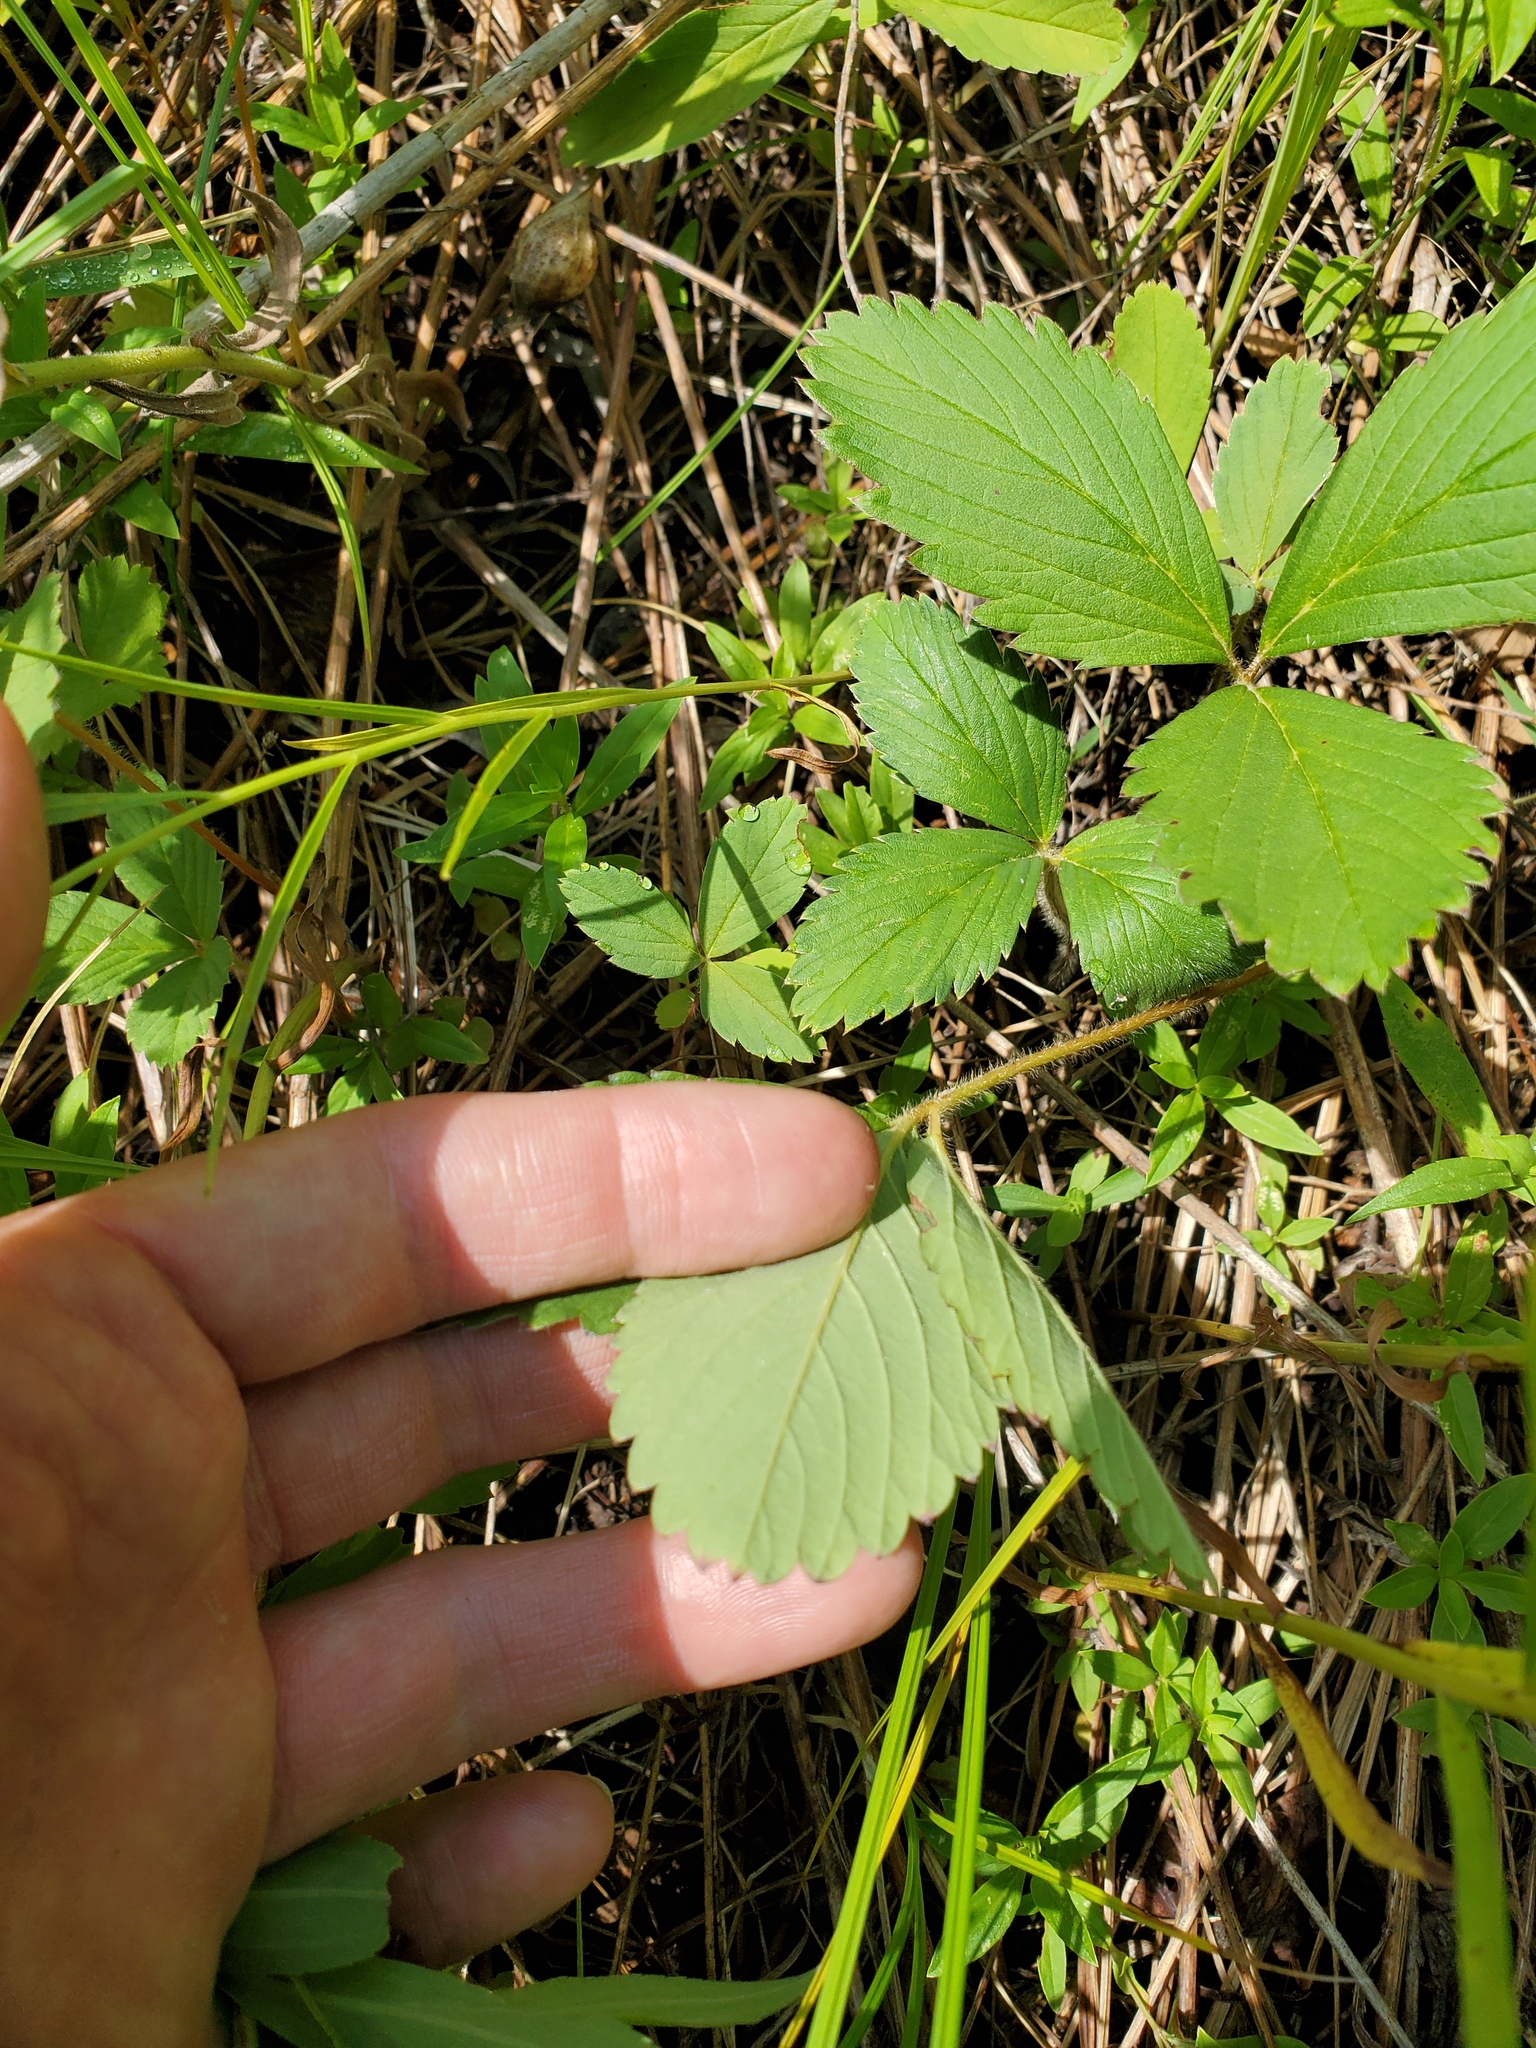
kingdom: Plantae
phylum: Tracheophyta
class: Magnoliopsida
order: Rosales
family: Rosaceae
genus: Fragaria
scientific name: Fragaria virginiana
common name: Thickleaved wild strawberry
